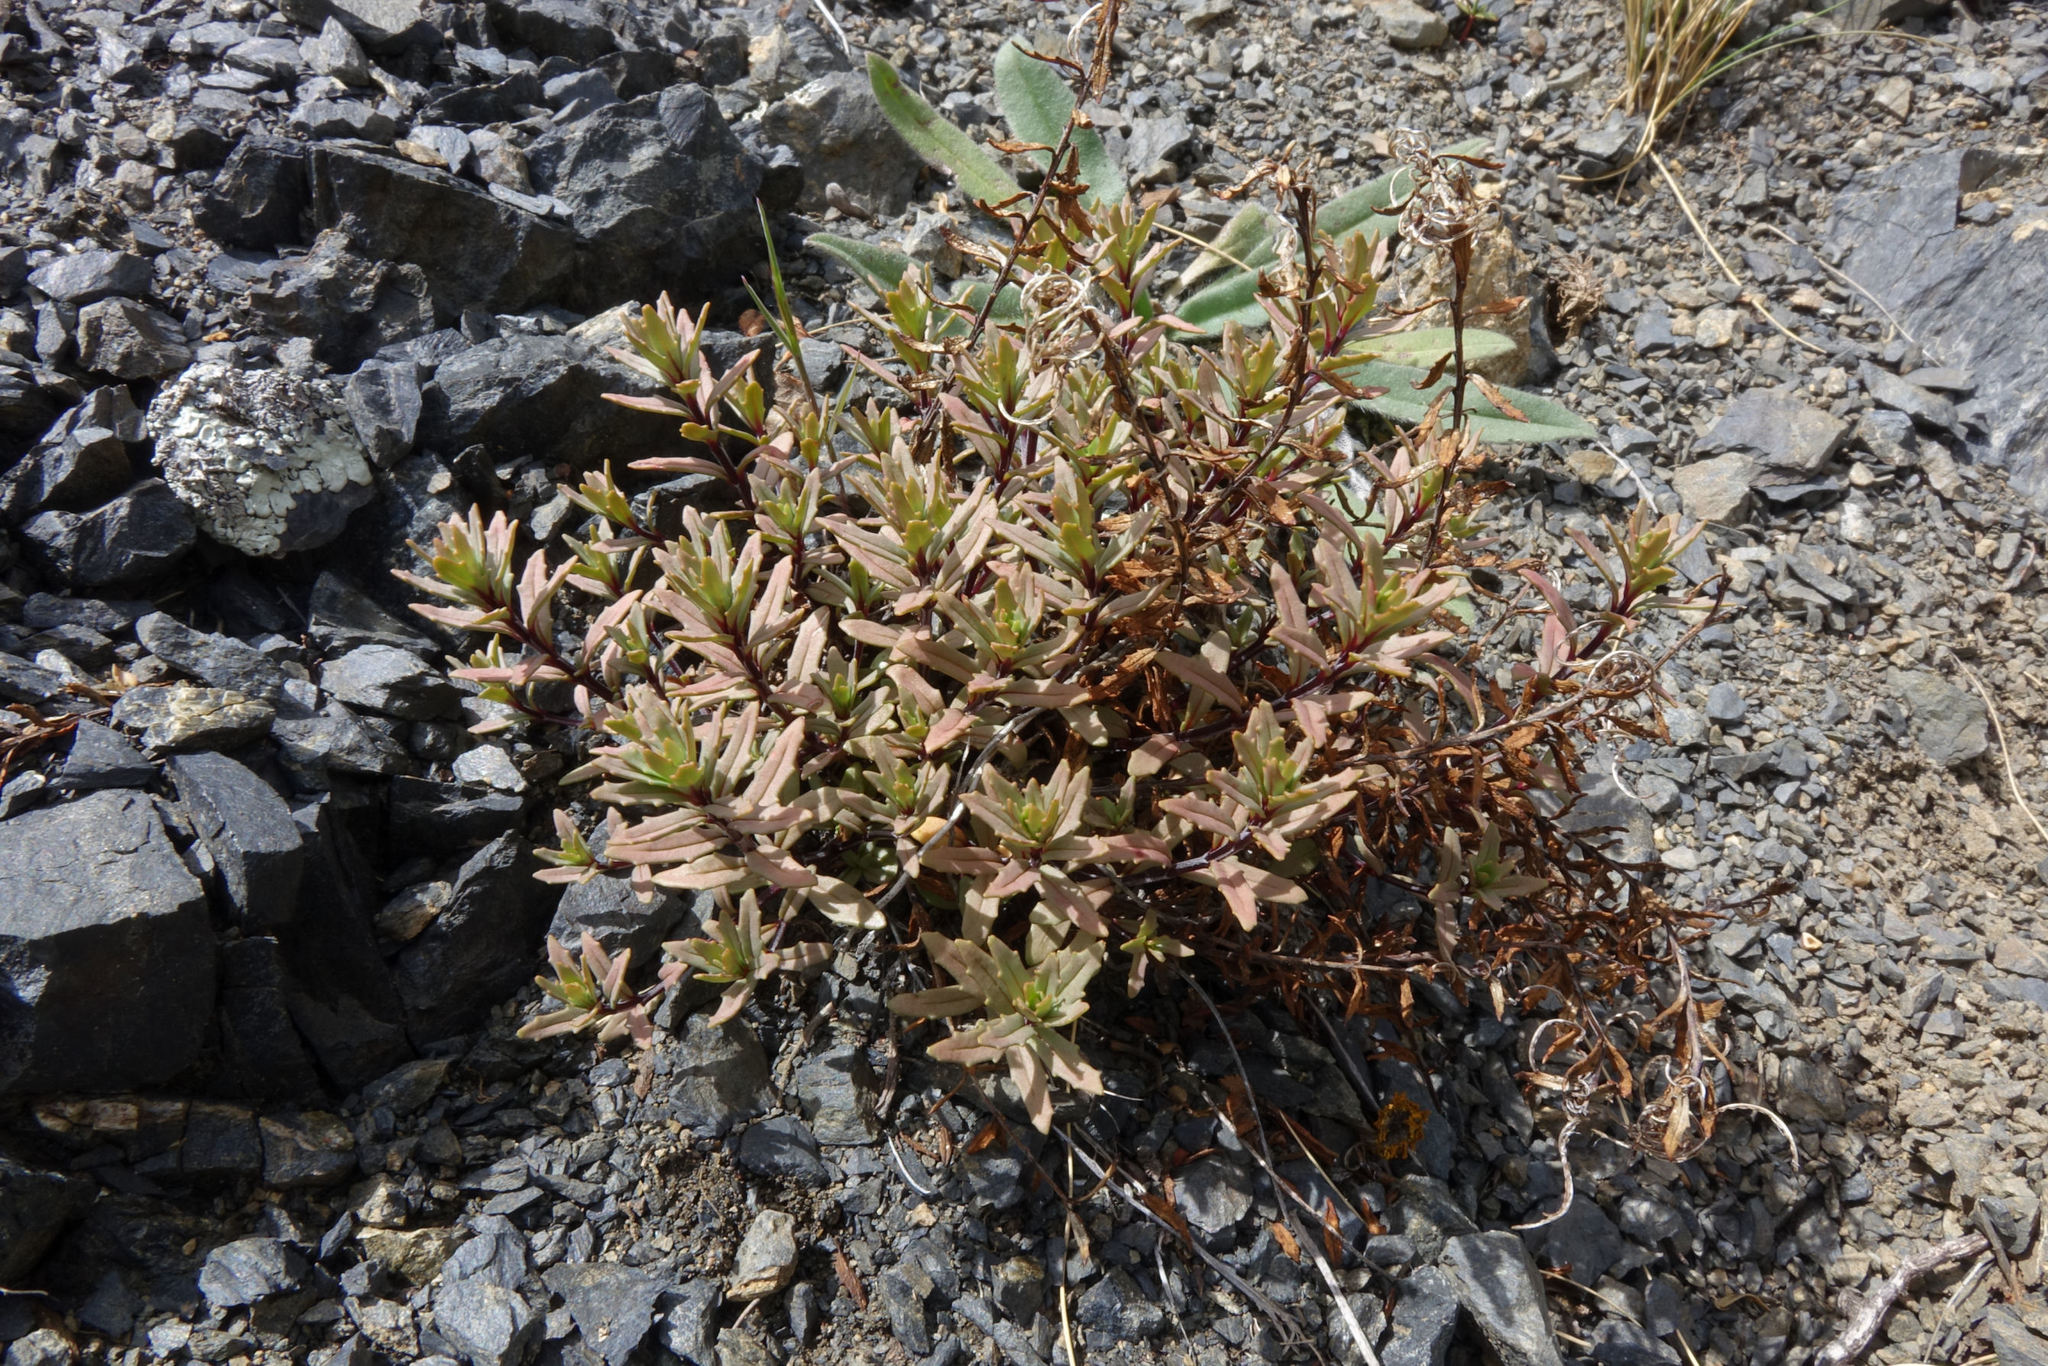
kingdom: Plantae
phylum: Tracheophyta
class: Magnoliopsida
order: Myrtales
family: Onagraceae
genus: Epilobium
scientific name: Epilobium melanocaulon
